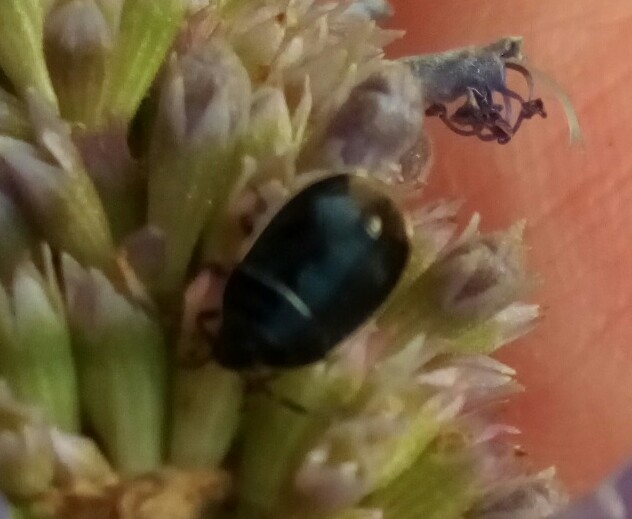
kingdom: Animalia
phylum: Arthropoda
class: Insecta
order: Hemiptera
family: Cydnidae
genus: Sehirus
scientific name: Sehirus cinctus
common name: White-margined burrower bug
